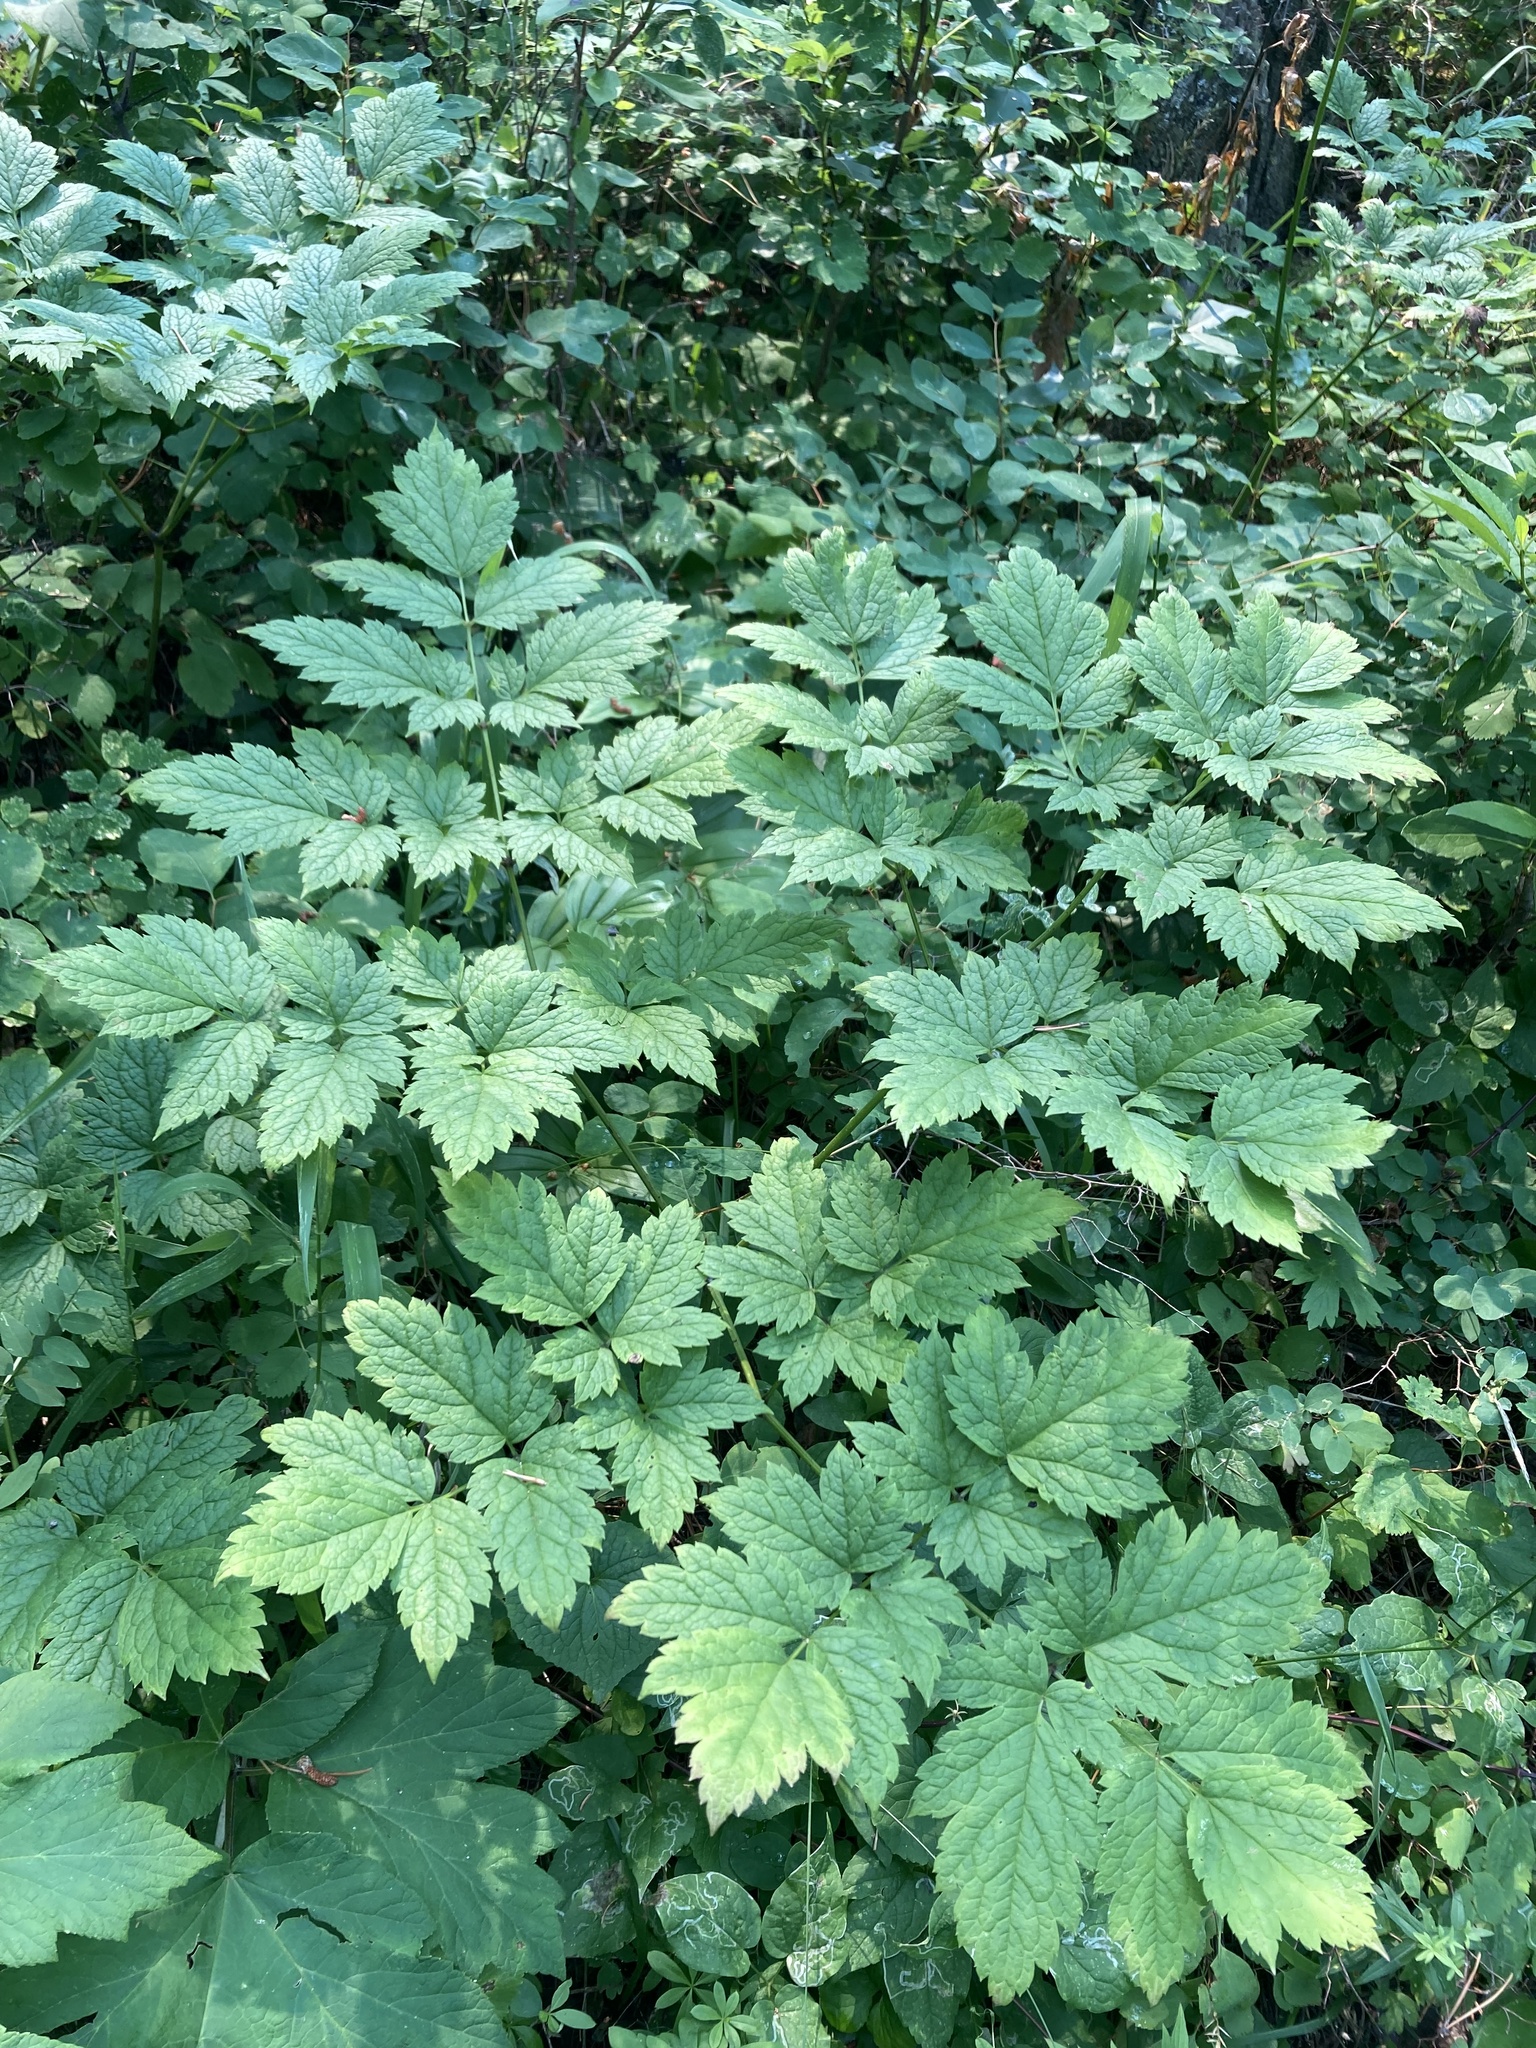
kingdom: Plantae
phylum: Tracheophyta
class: Magnoliopsida
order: Ranunculales
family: Ranunculaceae
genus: Actaea
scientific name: Actaea rubra
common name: Red baneberry
